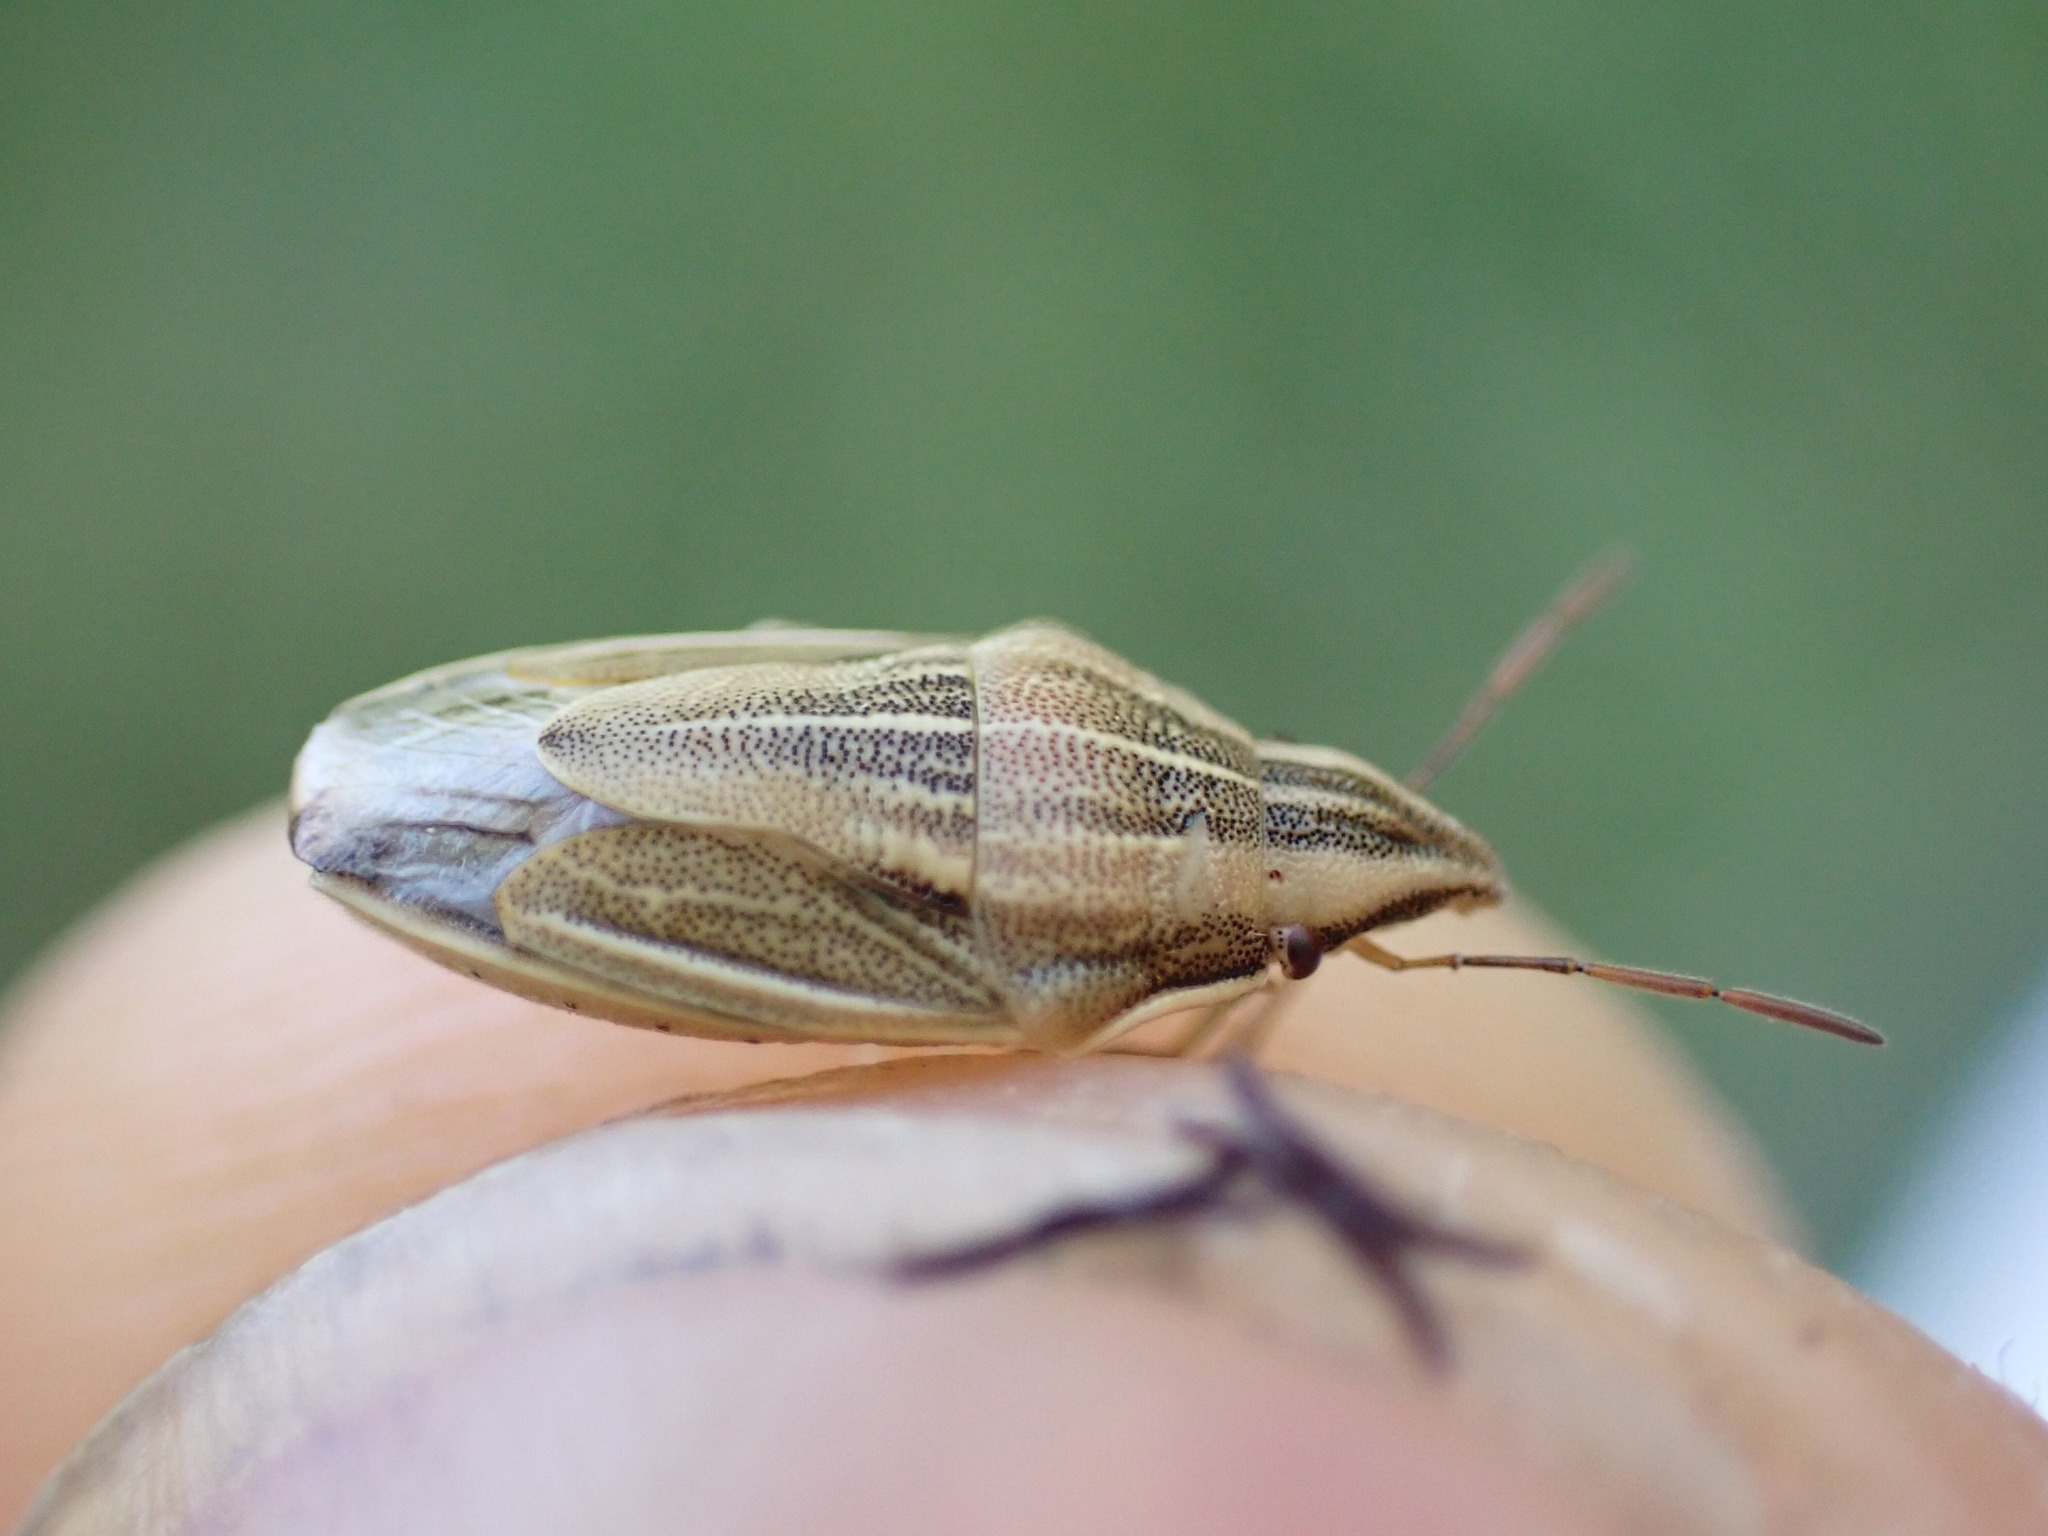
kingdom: Animalia
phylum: Arthropoda
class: Insecta
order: Hemiptera
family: Pentatomidae
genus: Aelia
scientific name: Aelia acuminata
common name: Bishop's mitre
